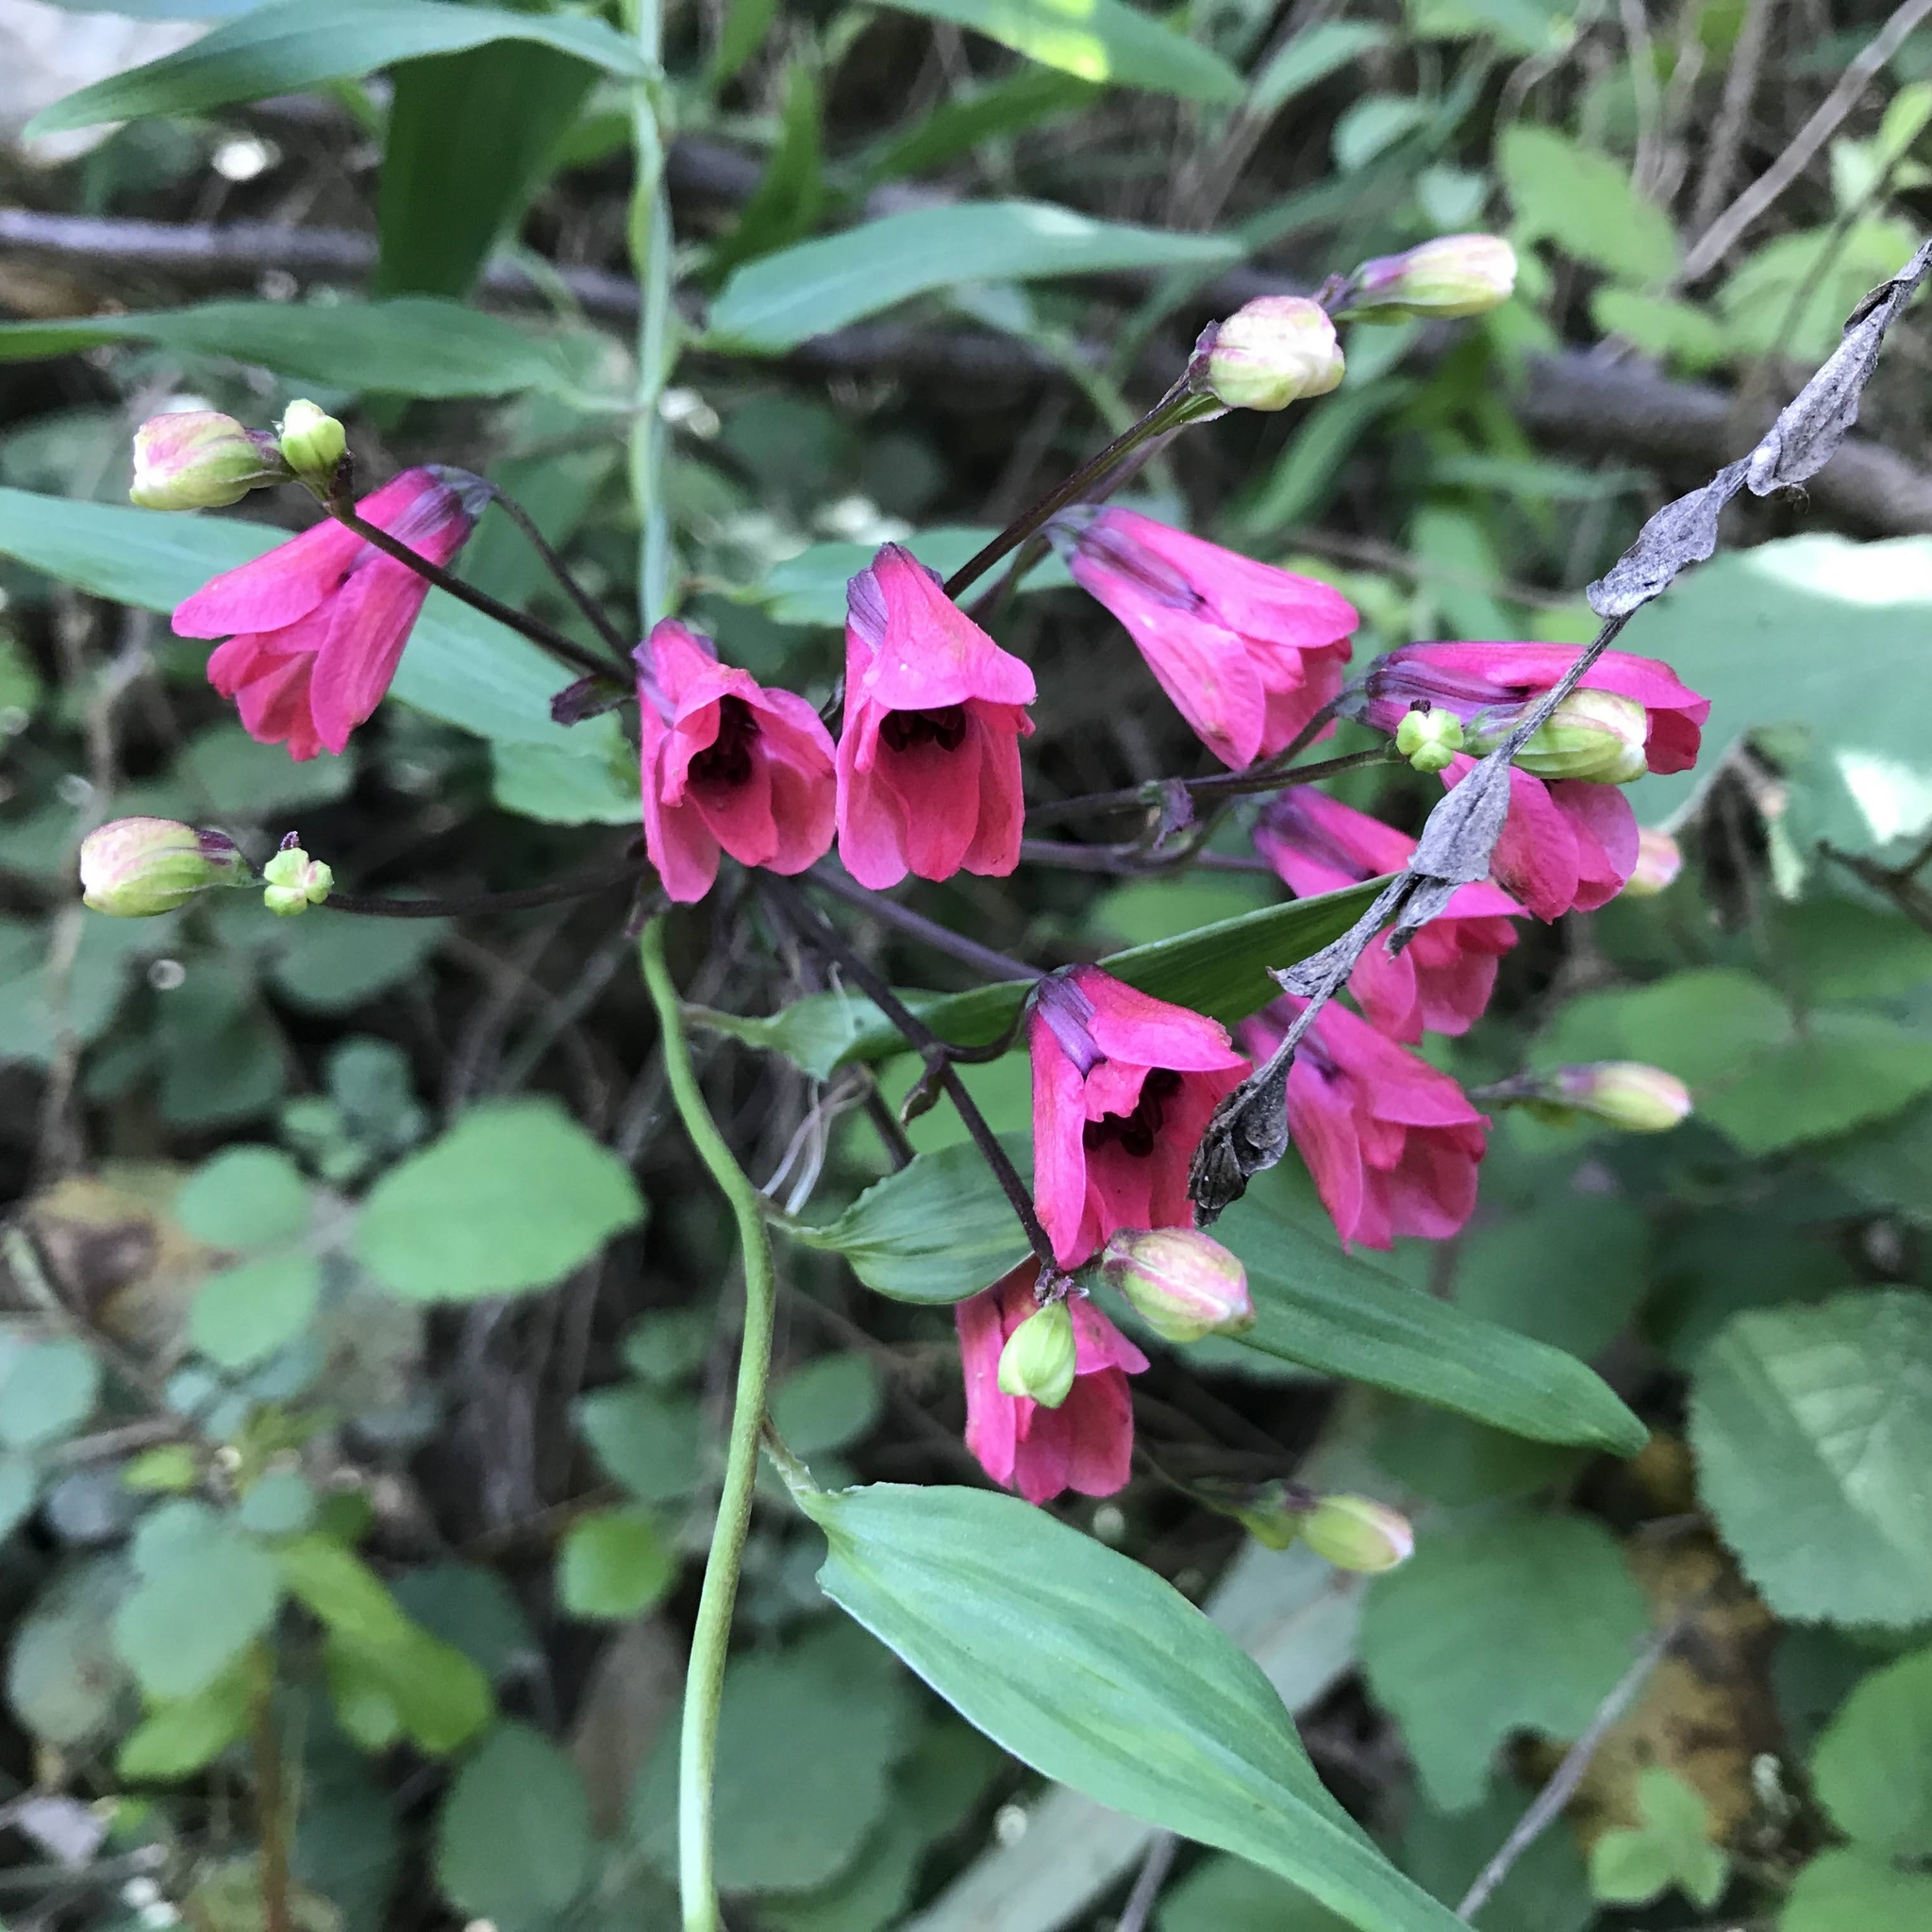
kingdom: Plantae
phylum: Tracheophyta
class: Liliopsida
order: Liliales
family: Alstroemeriaceae
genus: Bomarea
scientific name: Bomarea salsilla
